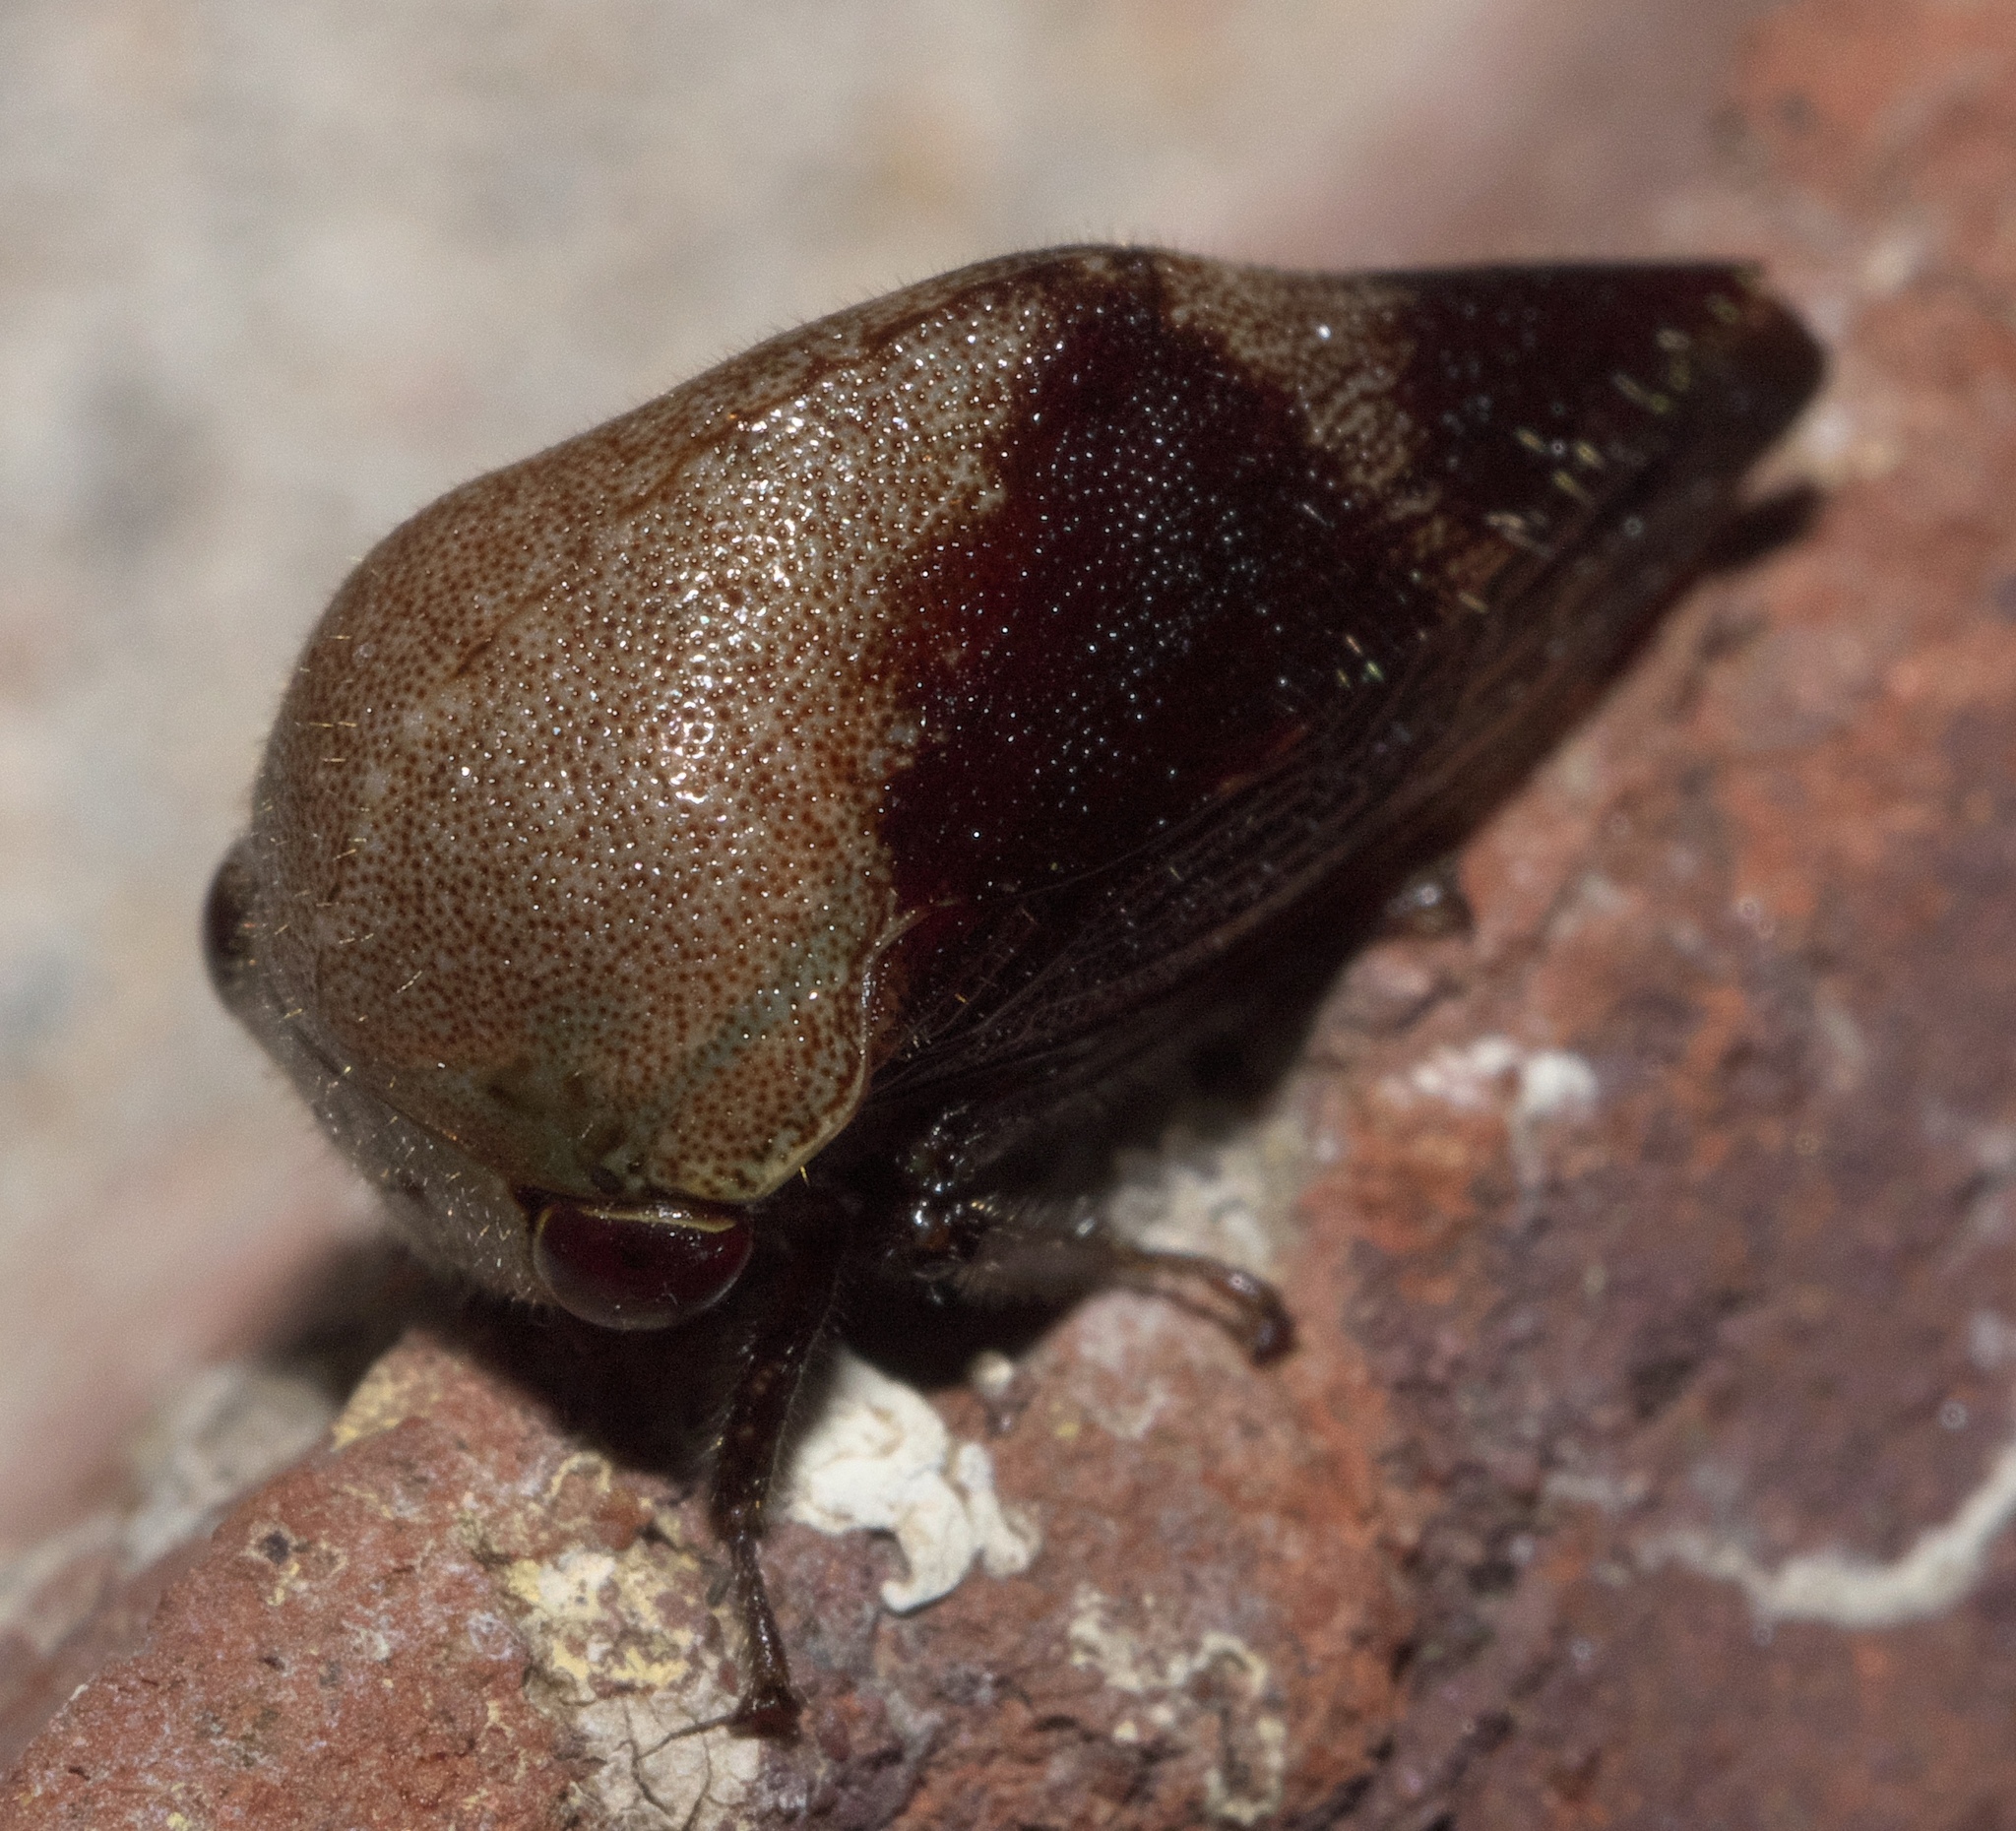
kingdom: Animalia
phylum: Arthropoda
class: Insecta
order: Hemiptera
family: Membracidae
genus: Carynota
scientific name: Carynota mera
